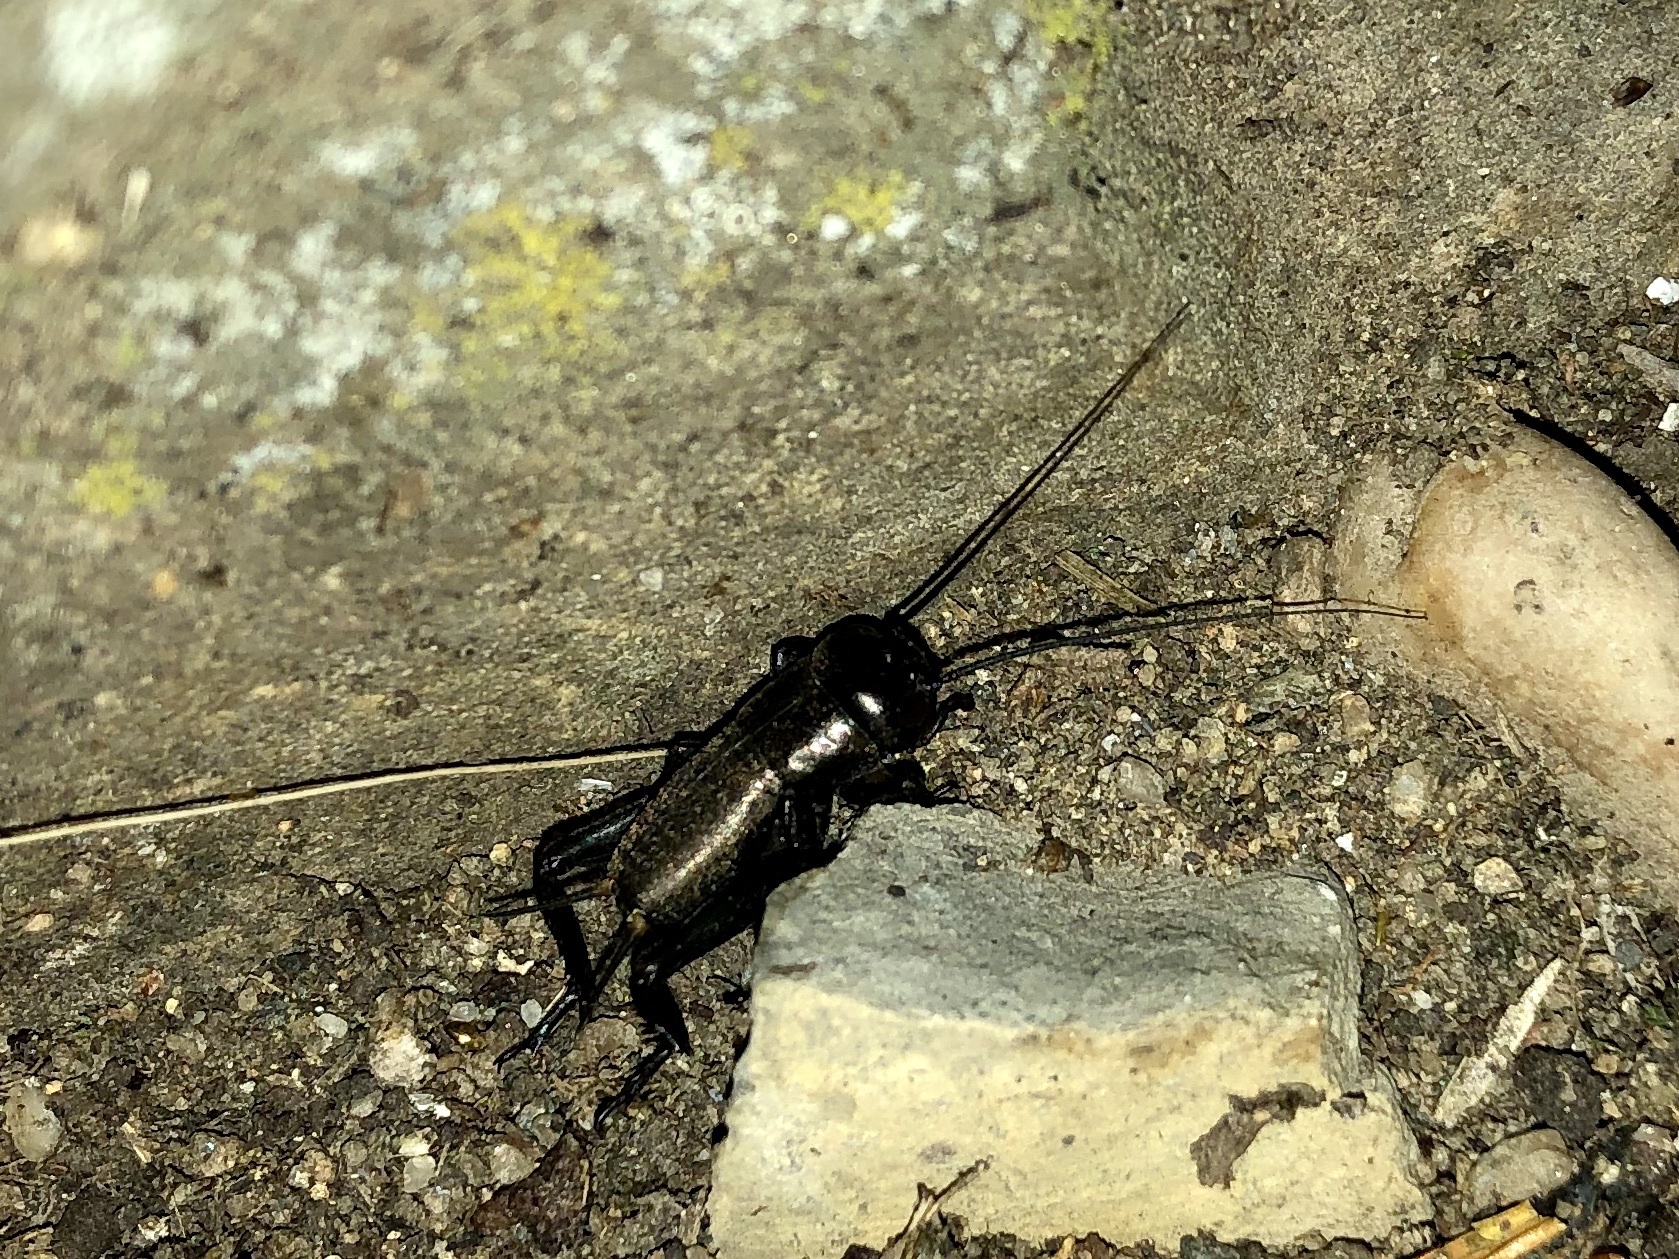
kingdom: Animalia
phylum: Arthropoda
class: Insecta
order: Orthoptera
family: Gryllidae
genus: Gryllus
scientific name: Gryllus campestris
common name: Field cricket
